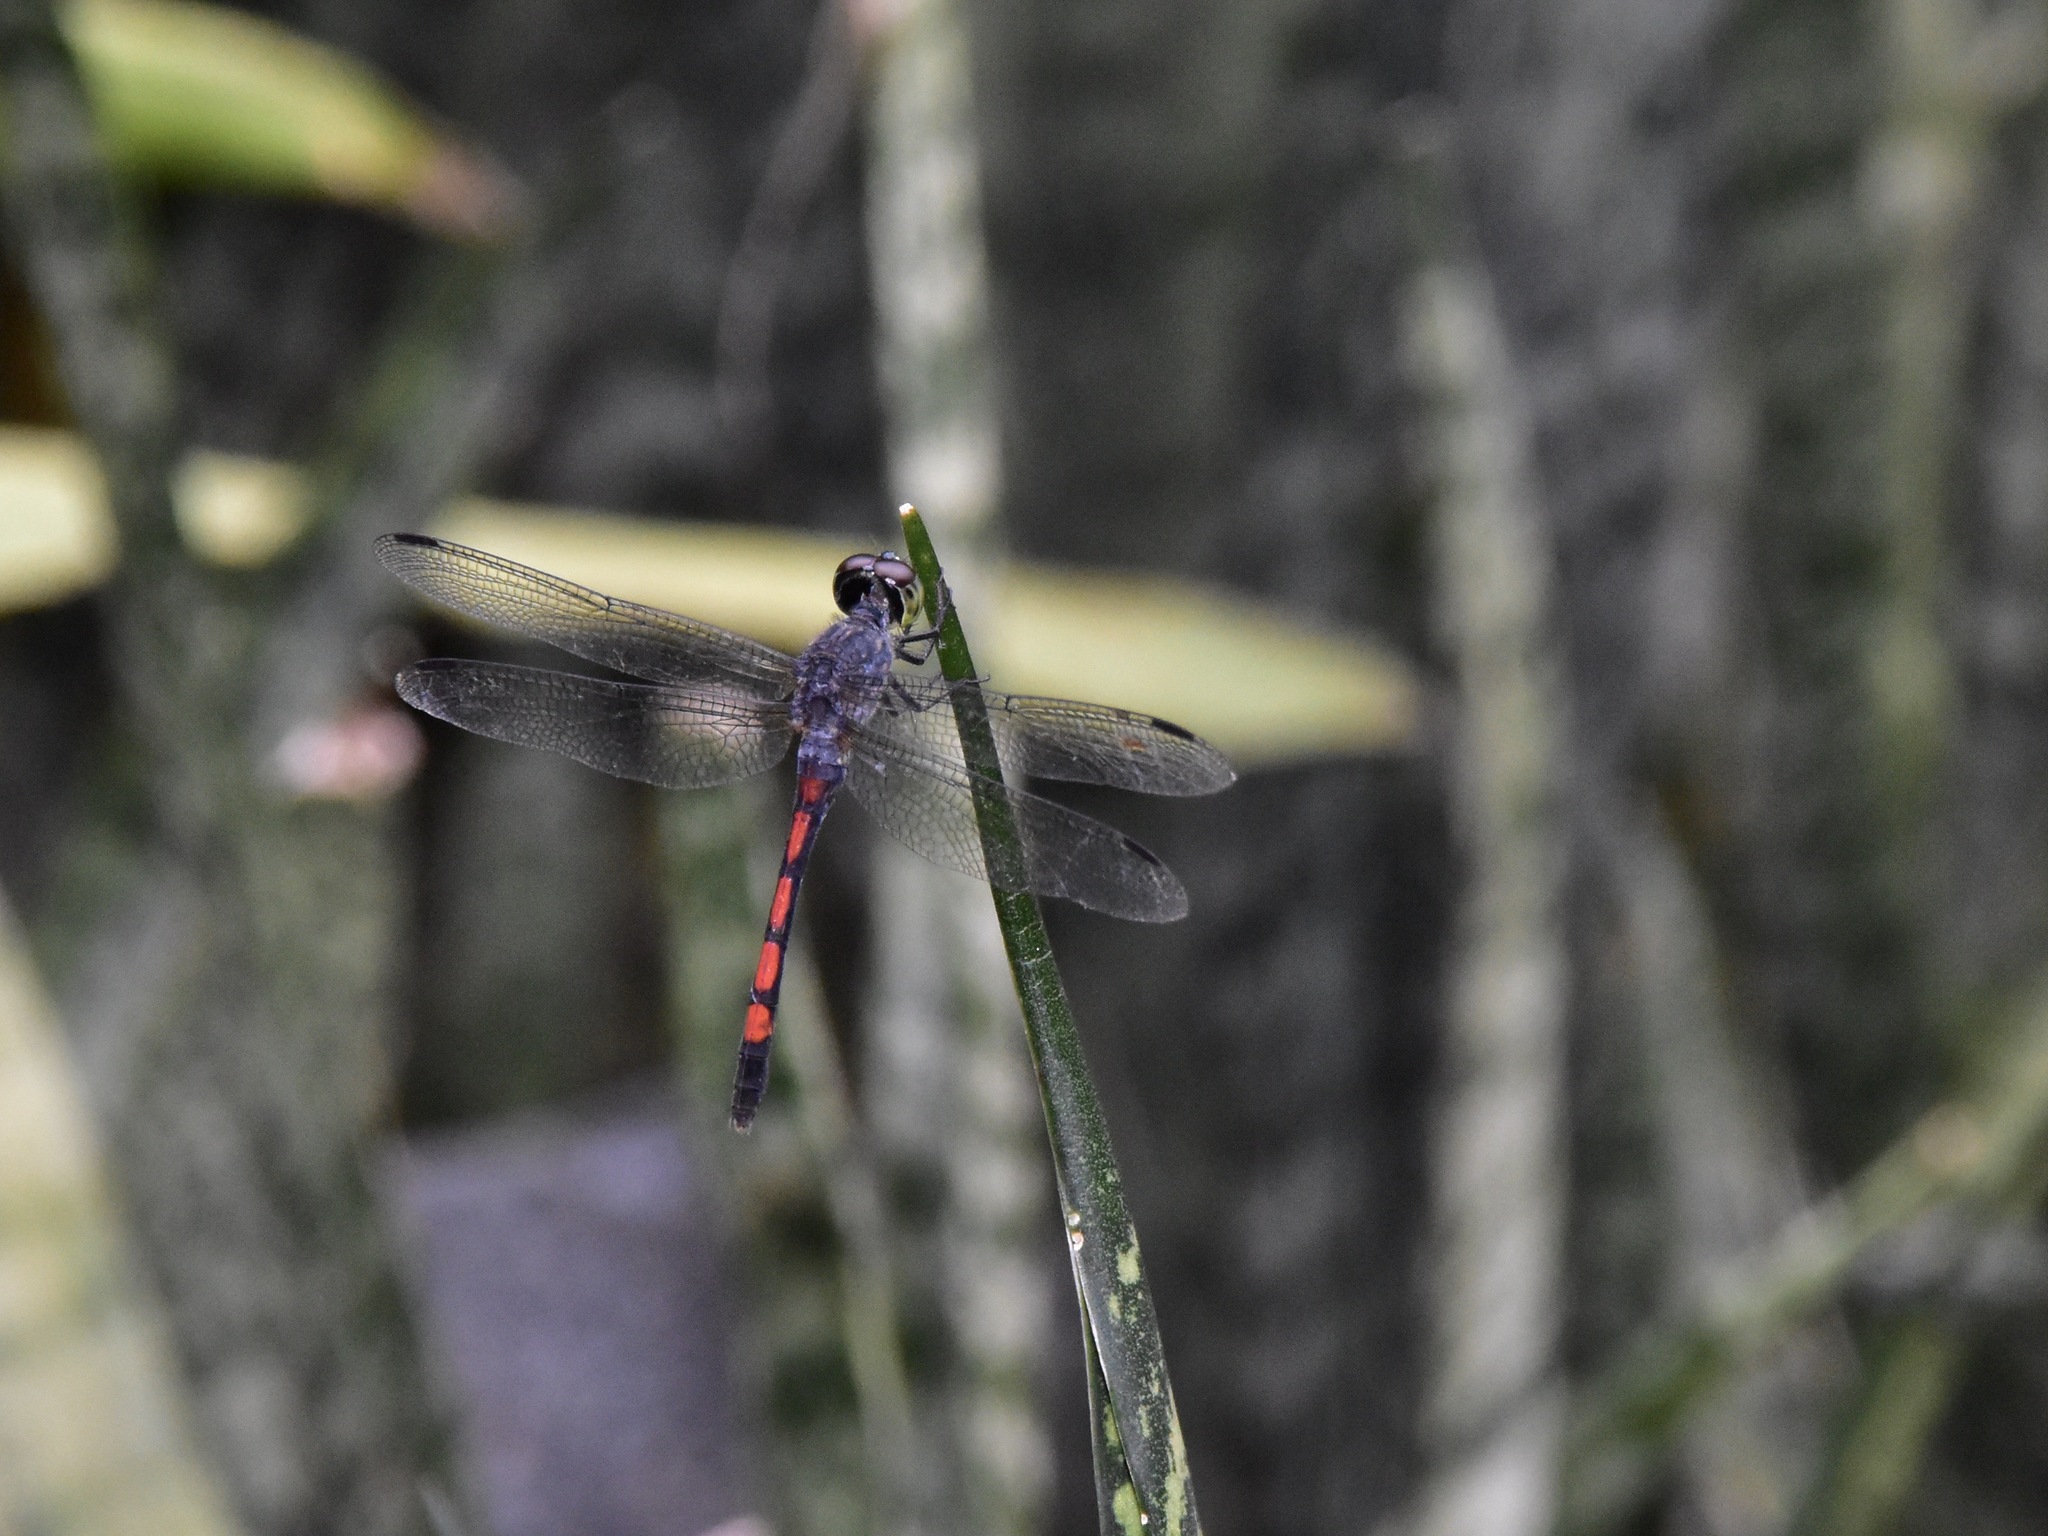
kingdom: Animalia
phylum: Arthropoda
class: Insecta
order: Odonata
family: Libellulidae
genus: Agrionoptera
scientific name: Agrionoptera insignis
